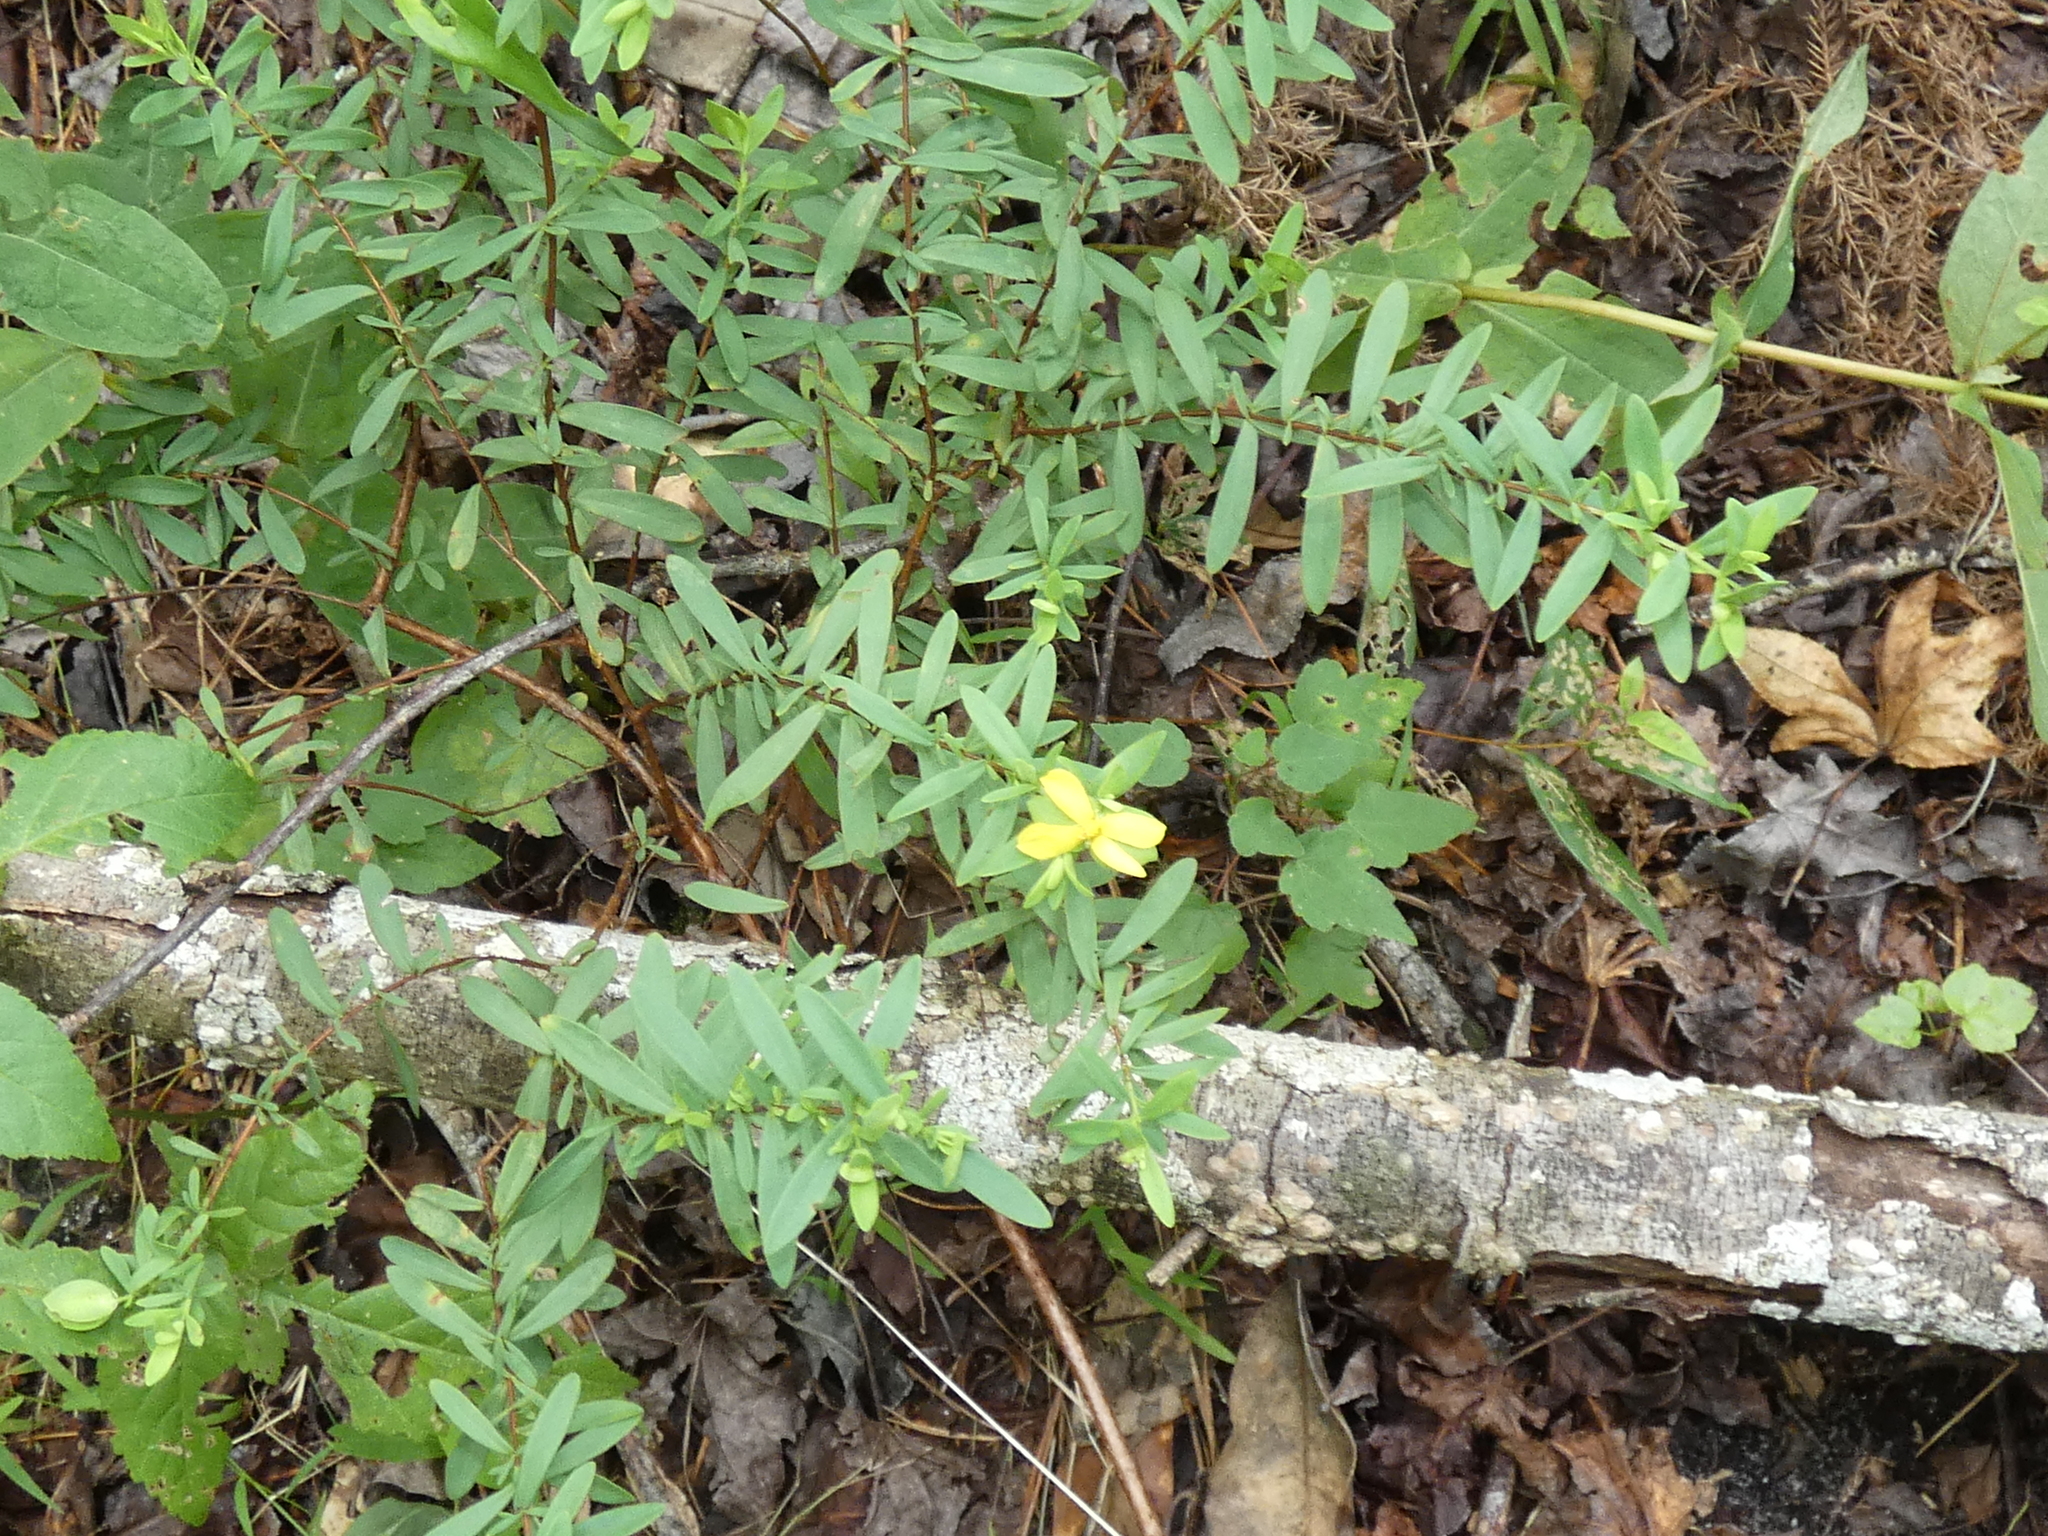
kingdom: Plantae
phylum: Tracheophyta
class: Magnoliopsida
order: Malpighiales
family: Hypericaceae
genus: Hypericum
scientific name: Hypericum hypericoides
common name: St. andrew's cross
